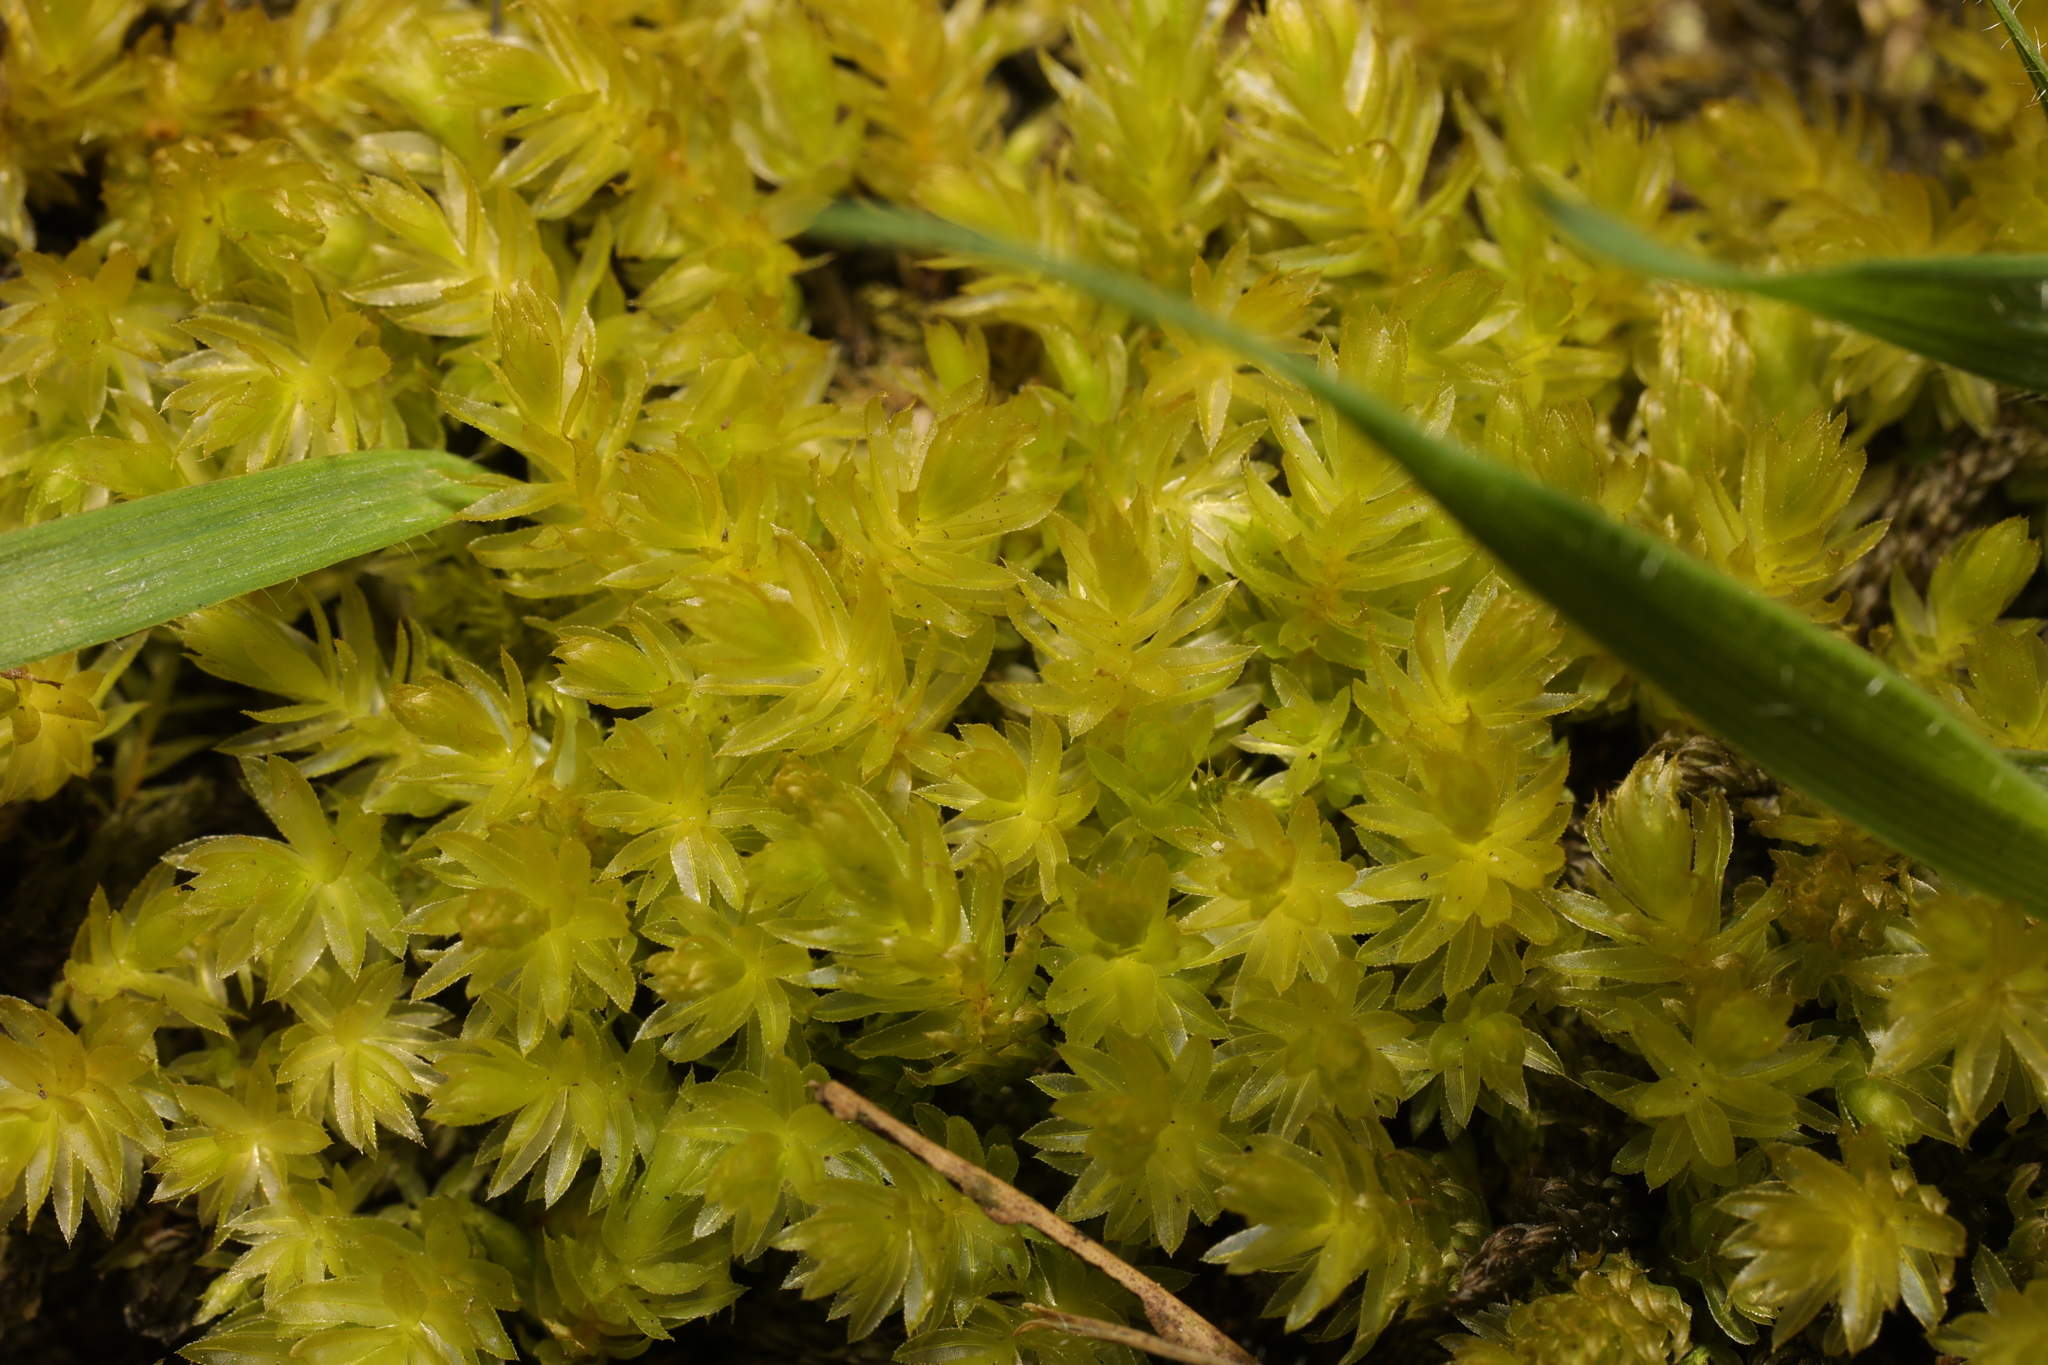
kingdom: Plantae
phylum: Bryophyta
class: Bryopsida
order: Bryales
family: Mniaceae
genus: Mnium
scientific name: Mnium hornum
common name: Swan's-neck leafy moss
